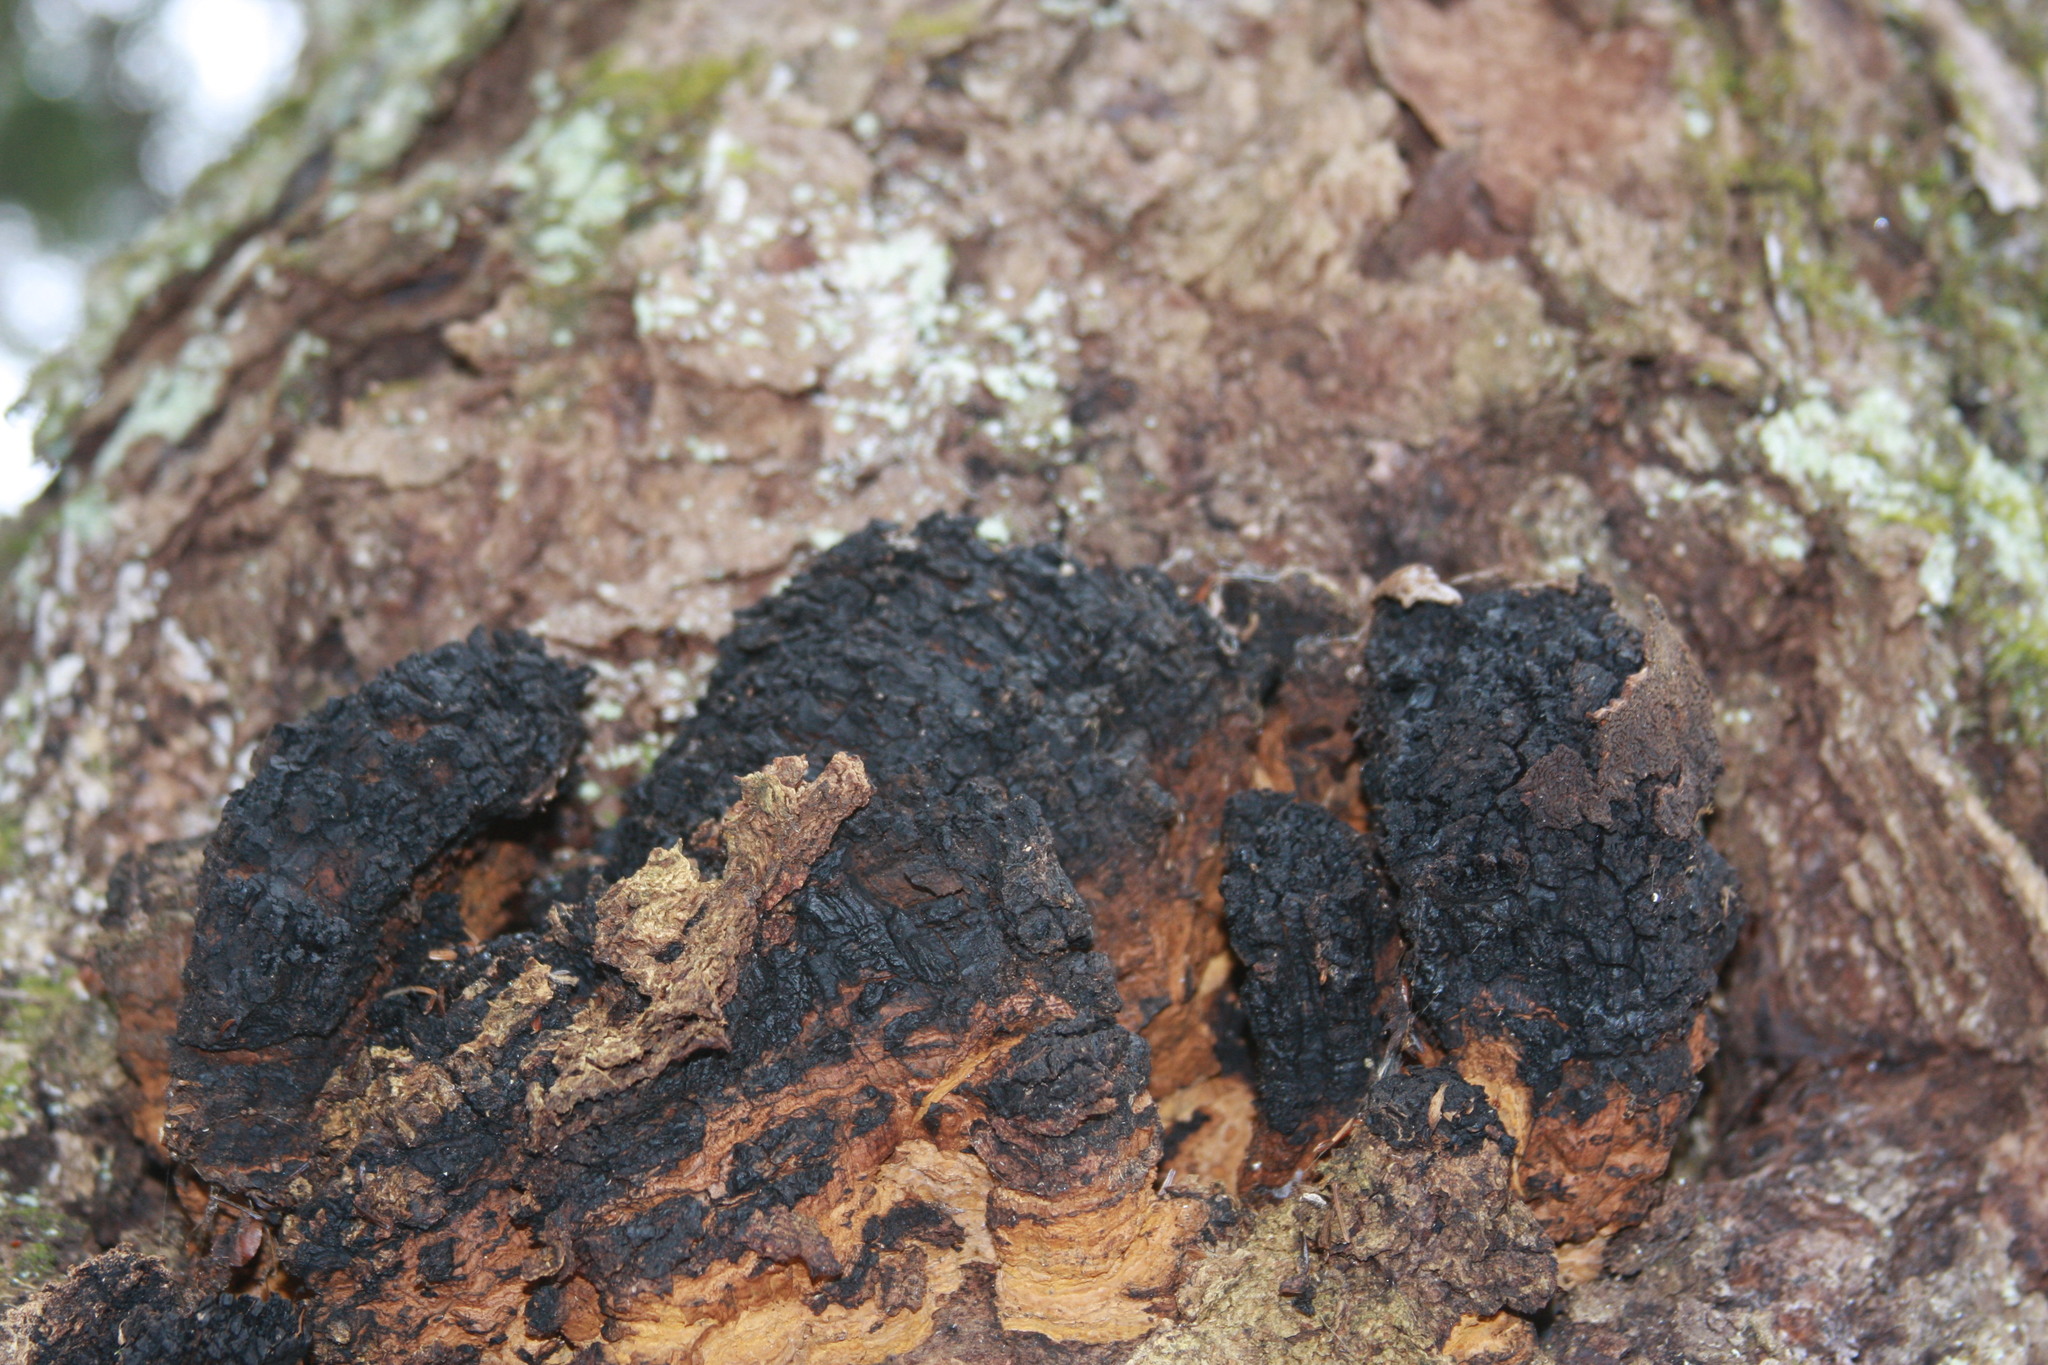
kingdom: Fungi
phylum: Basidiomycota
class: Agaricomycetes
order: Hymenochaetales
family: Hymenochaetaceae
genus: Inonotus
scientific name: Inonotus obliquus
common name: Chaga
